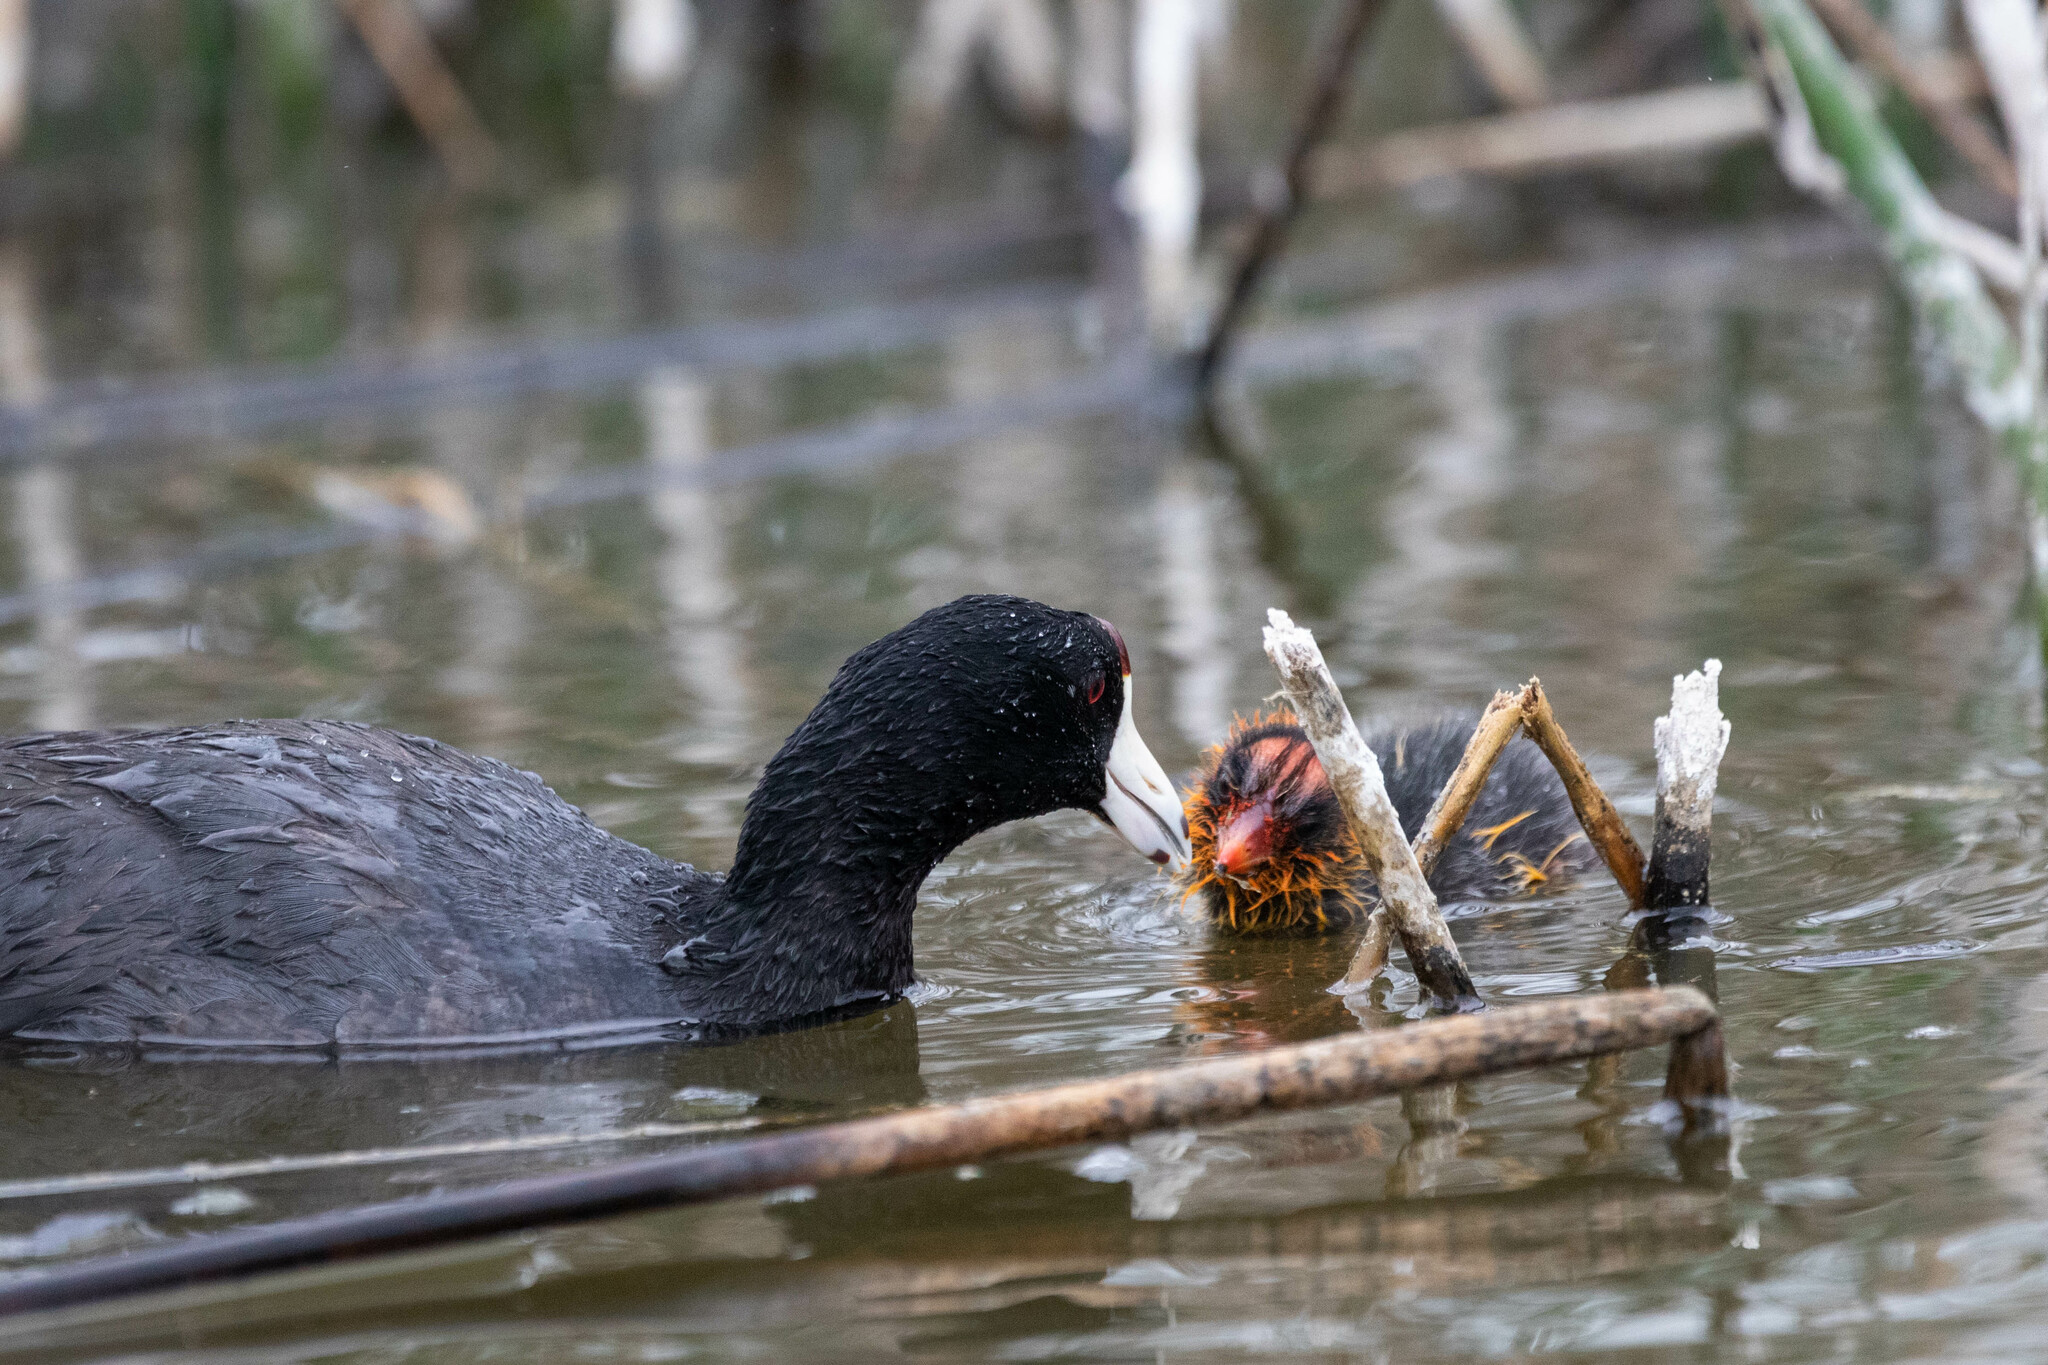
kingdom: Animalia
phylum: Chordata
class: Aves
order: Gruiformes
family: Rallidae
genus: Fulica
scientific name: Fulica americana
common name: American coot
